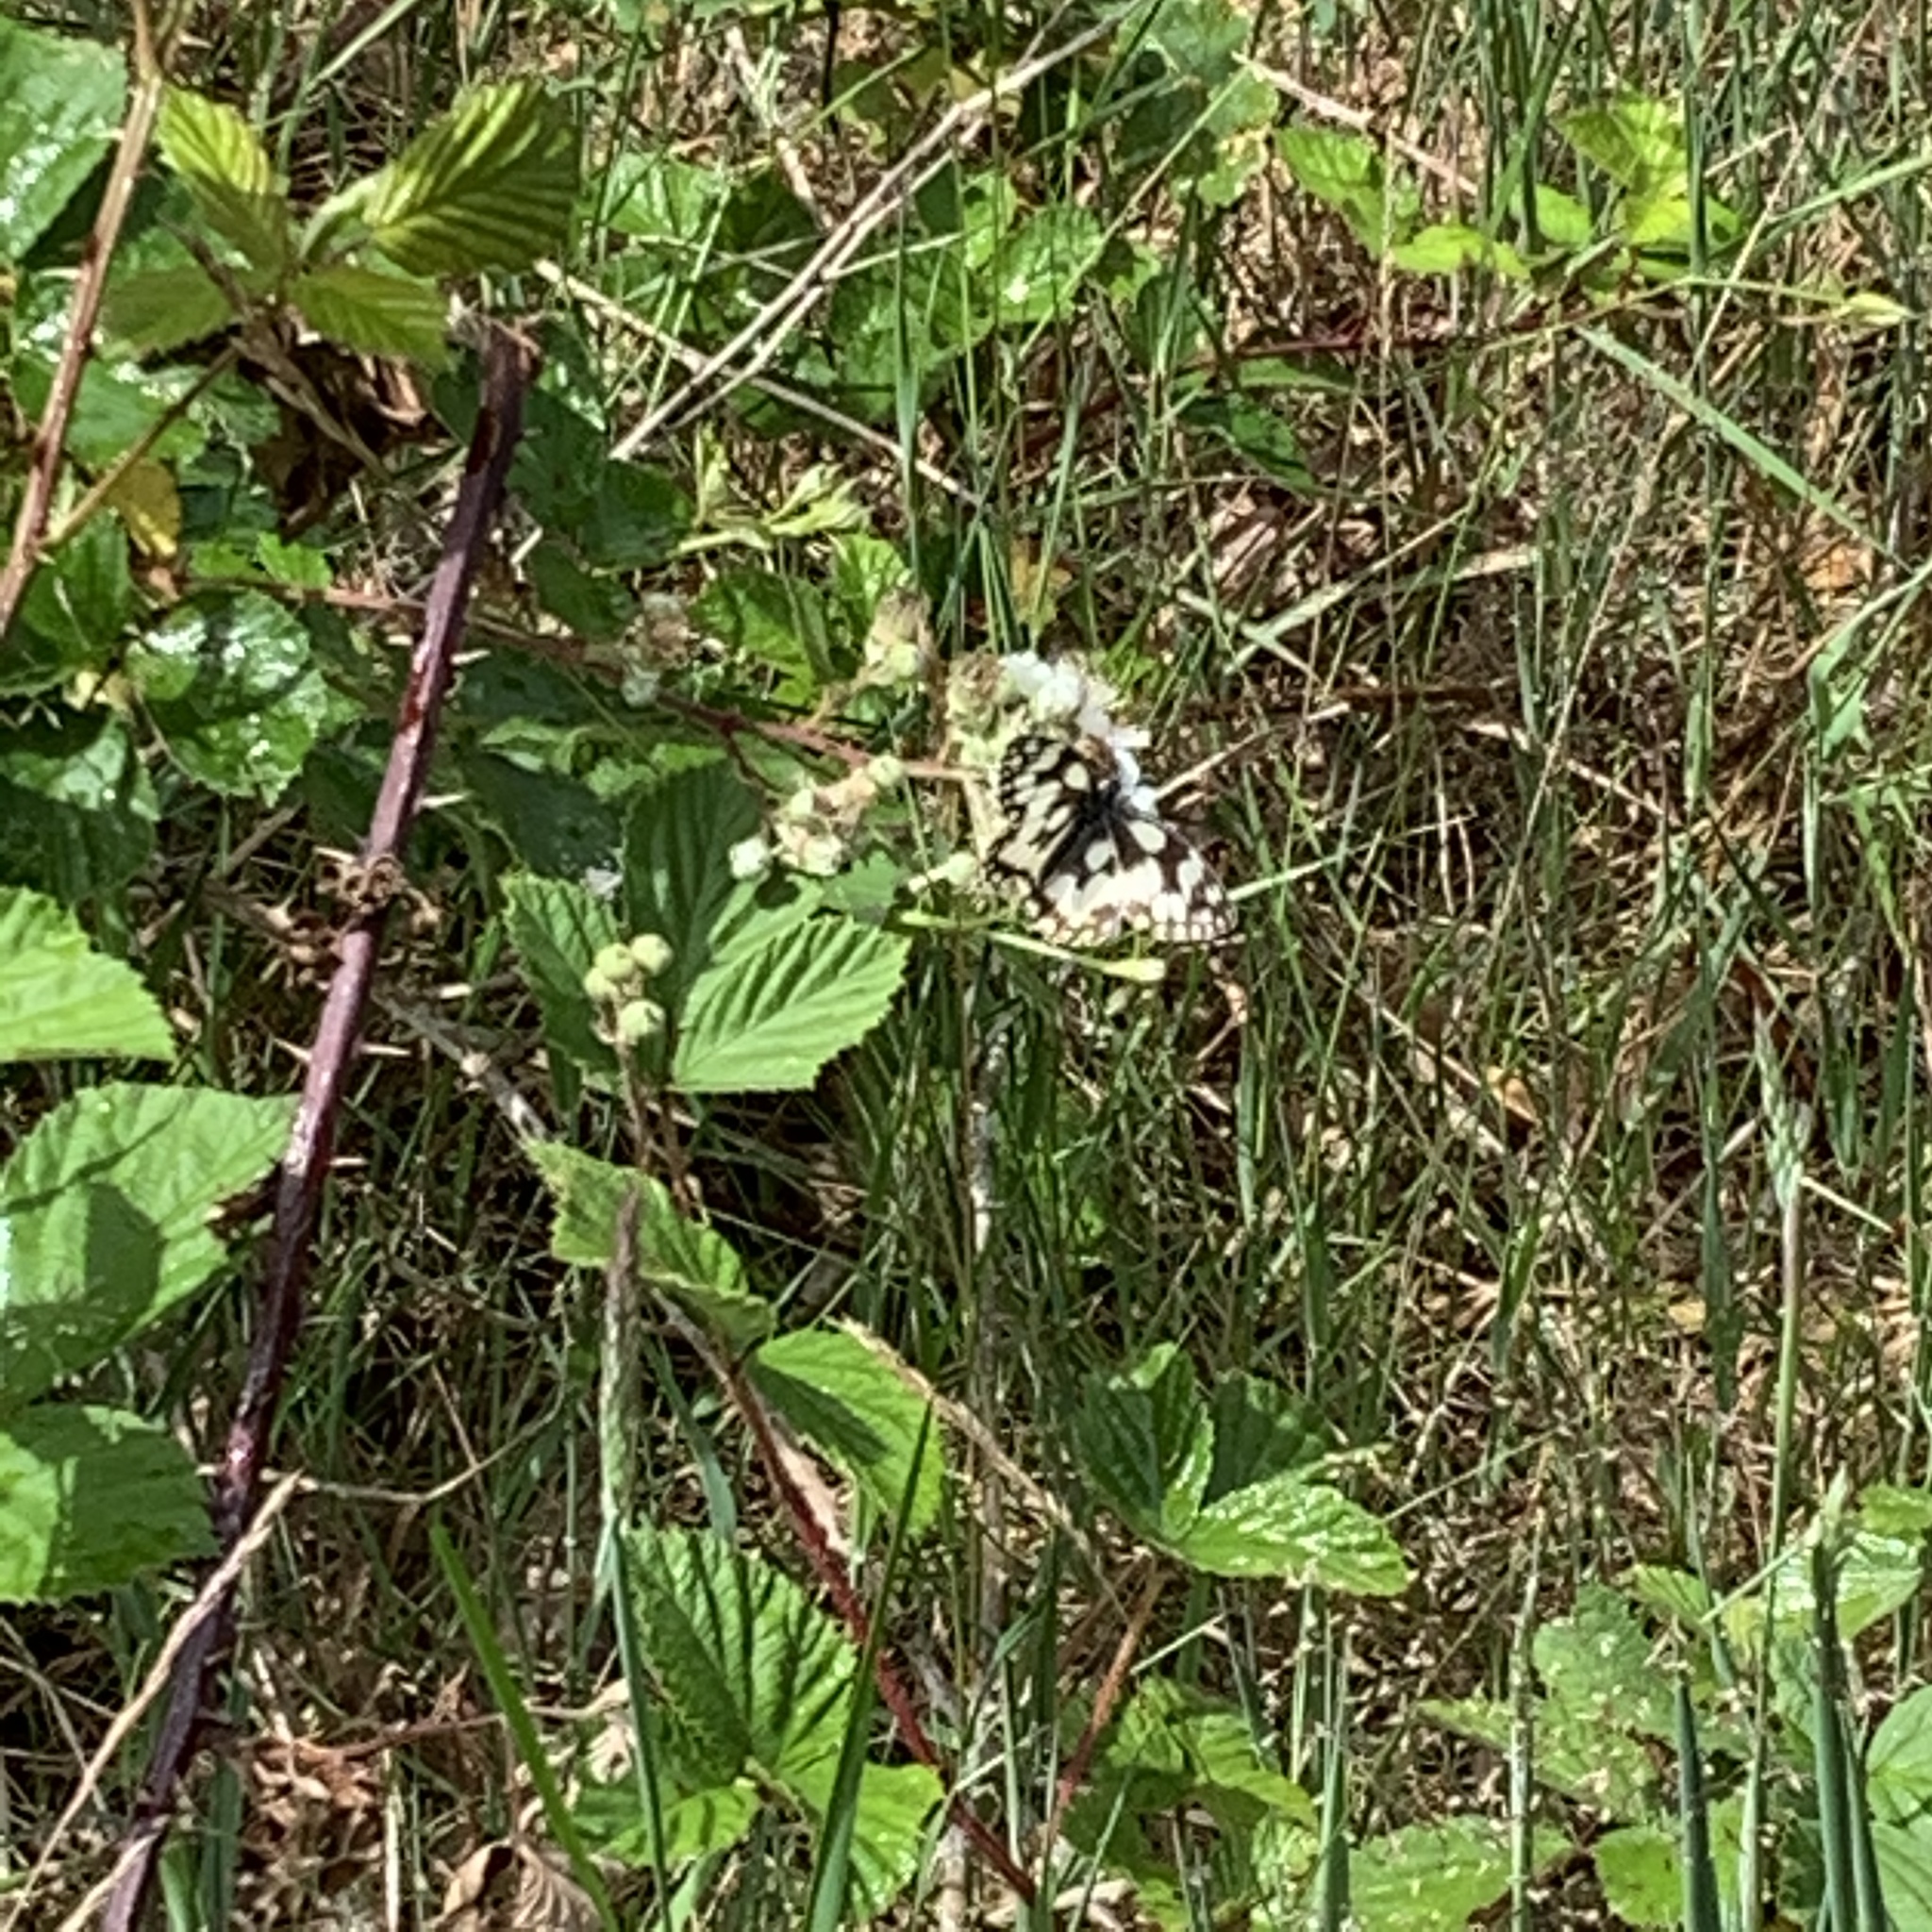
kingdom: Animalia
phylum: Arthropoda
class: Insecta
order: Lepidoptera
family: Nymphalidae
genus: Melanargia
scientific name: Melanargia galathea
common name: Marbled white
